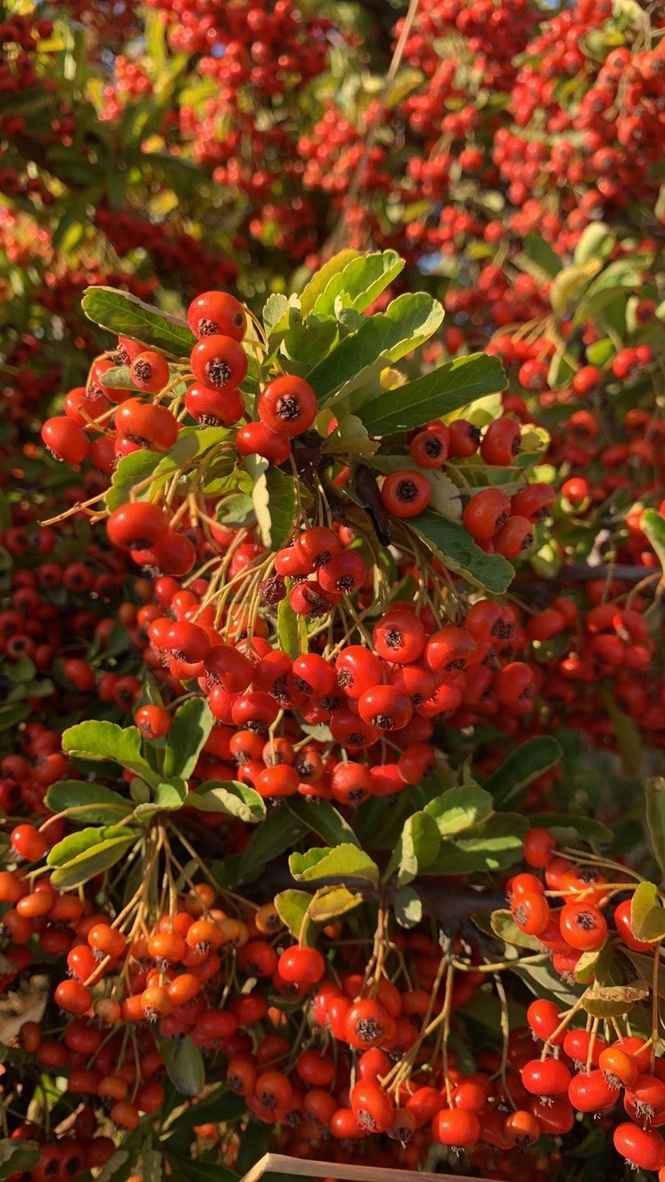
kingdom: Plantae
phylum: Tracheophyta
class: Magnoliopsida
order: Rosales
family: Rosaceae
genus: Pyracantha
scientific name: Pyracantha coccinea
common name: Firethorn
